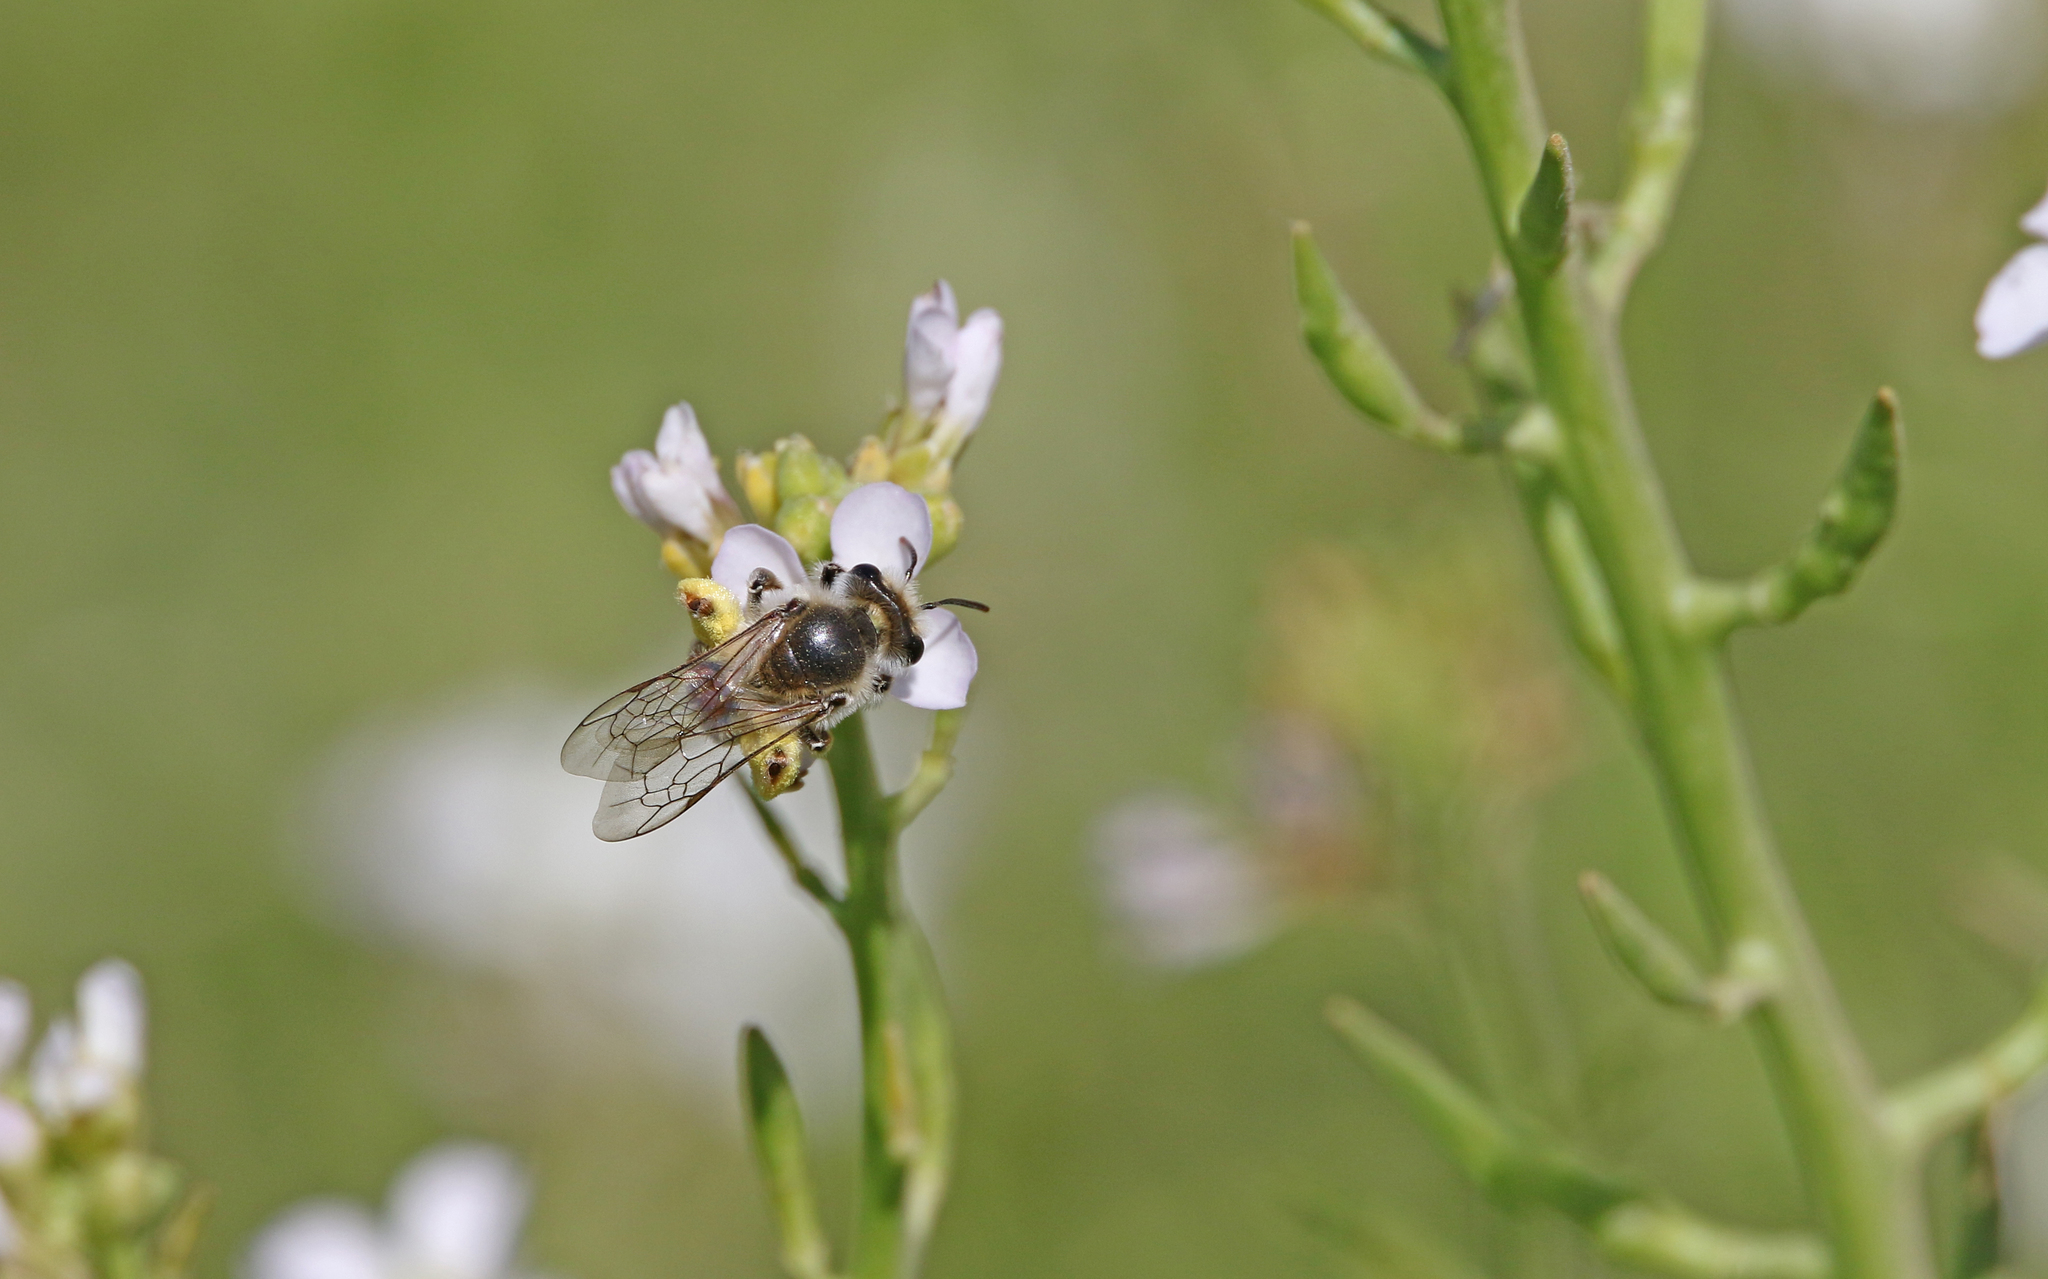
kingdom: Animalia
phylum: Arthropoda
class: Insecta
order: Hymenoptera
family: Andrenidae
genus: Andrena
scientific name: Andrena savignyi
